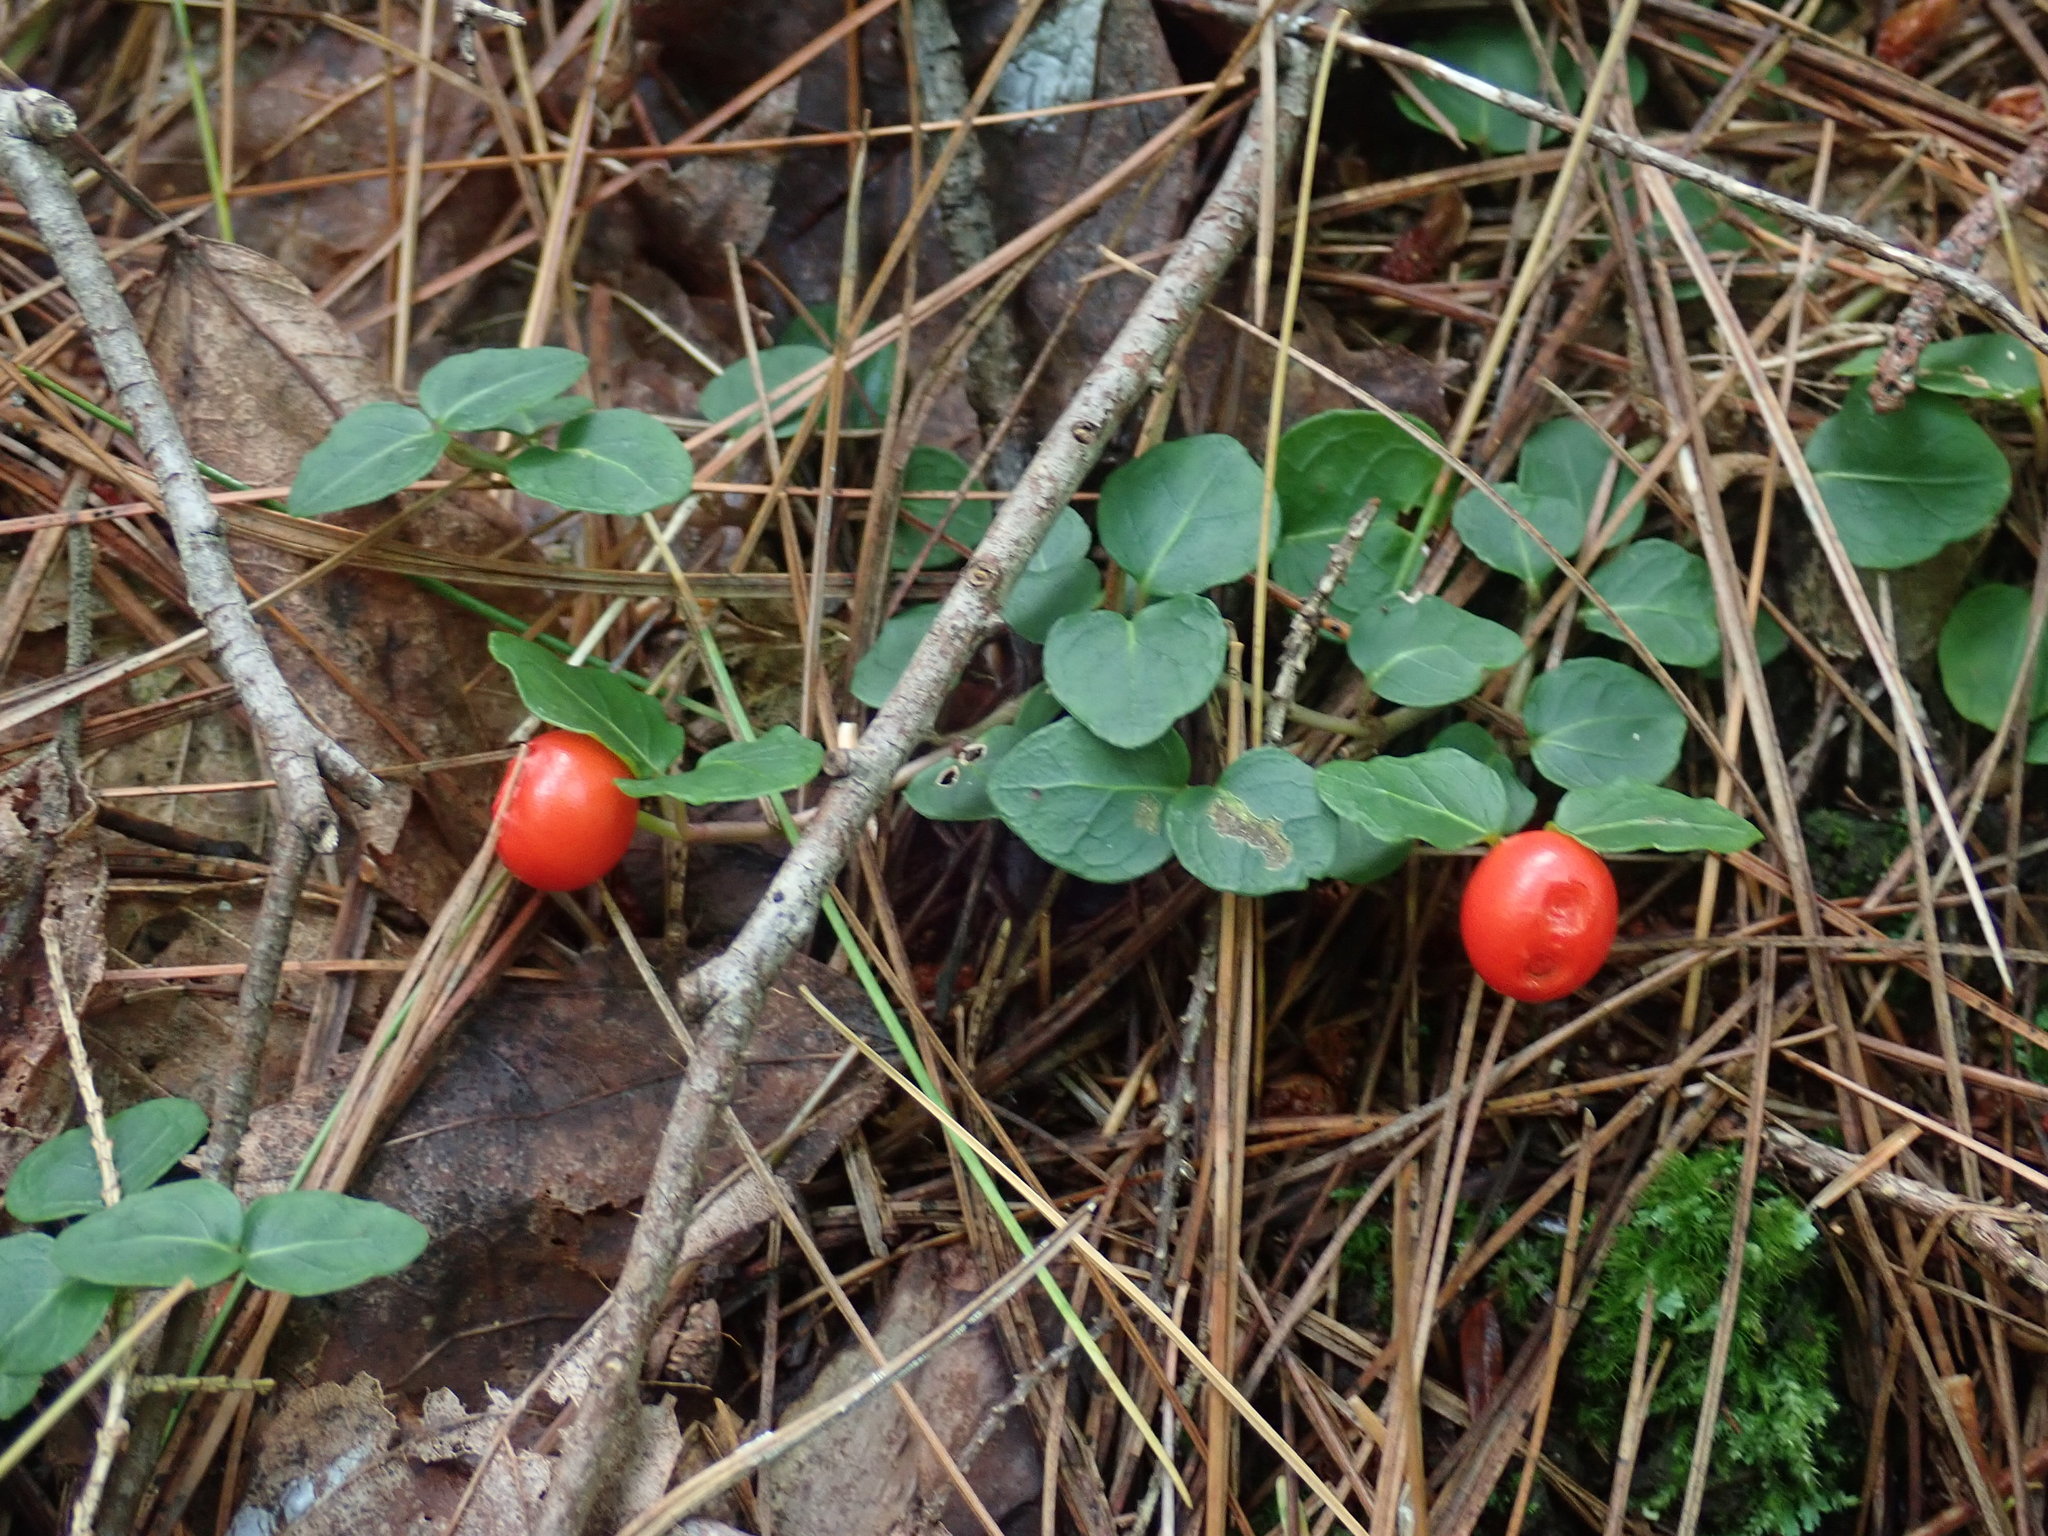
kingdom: Plantae
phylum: Tracheophyta
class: Magnoliopsida
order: Gentianales
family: Rubiaceae
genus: Mitchella
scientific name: Mitchella repens
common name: Partridge-berry
